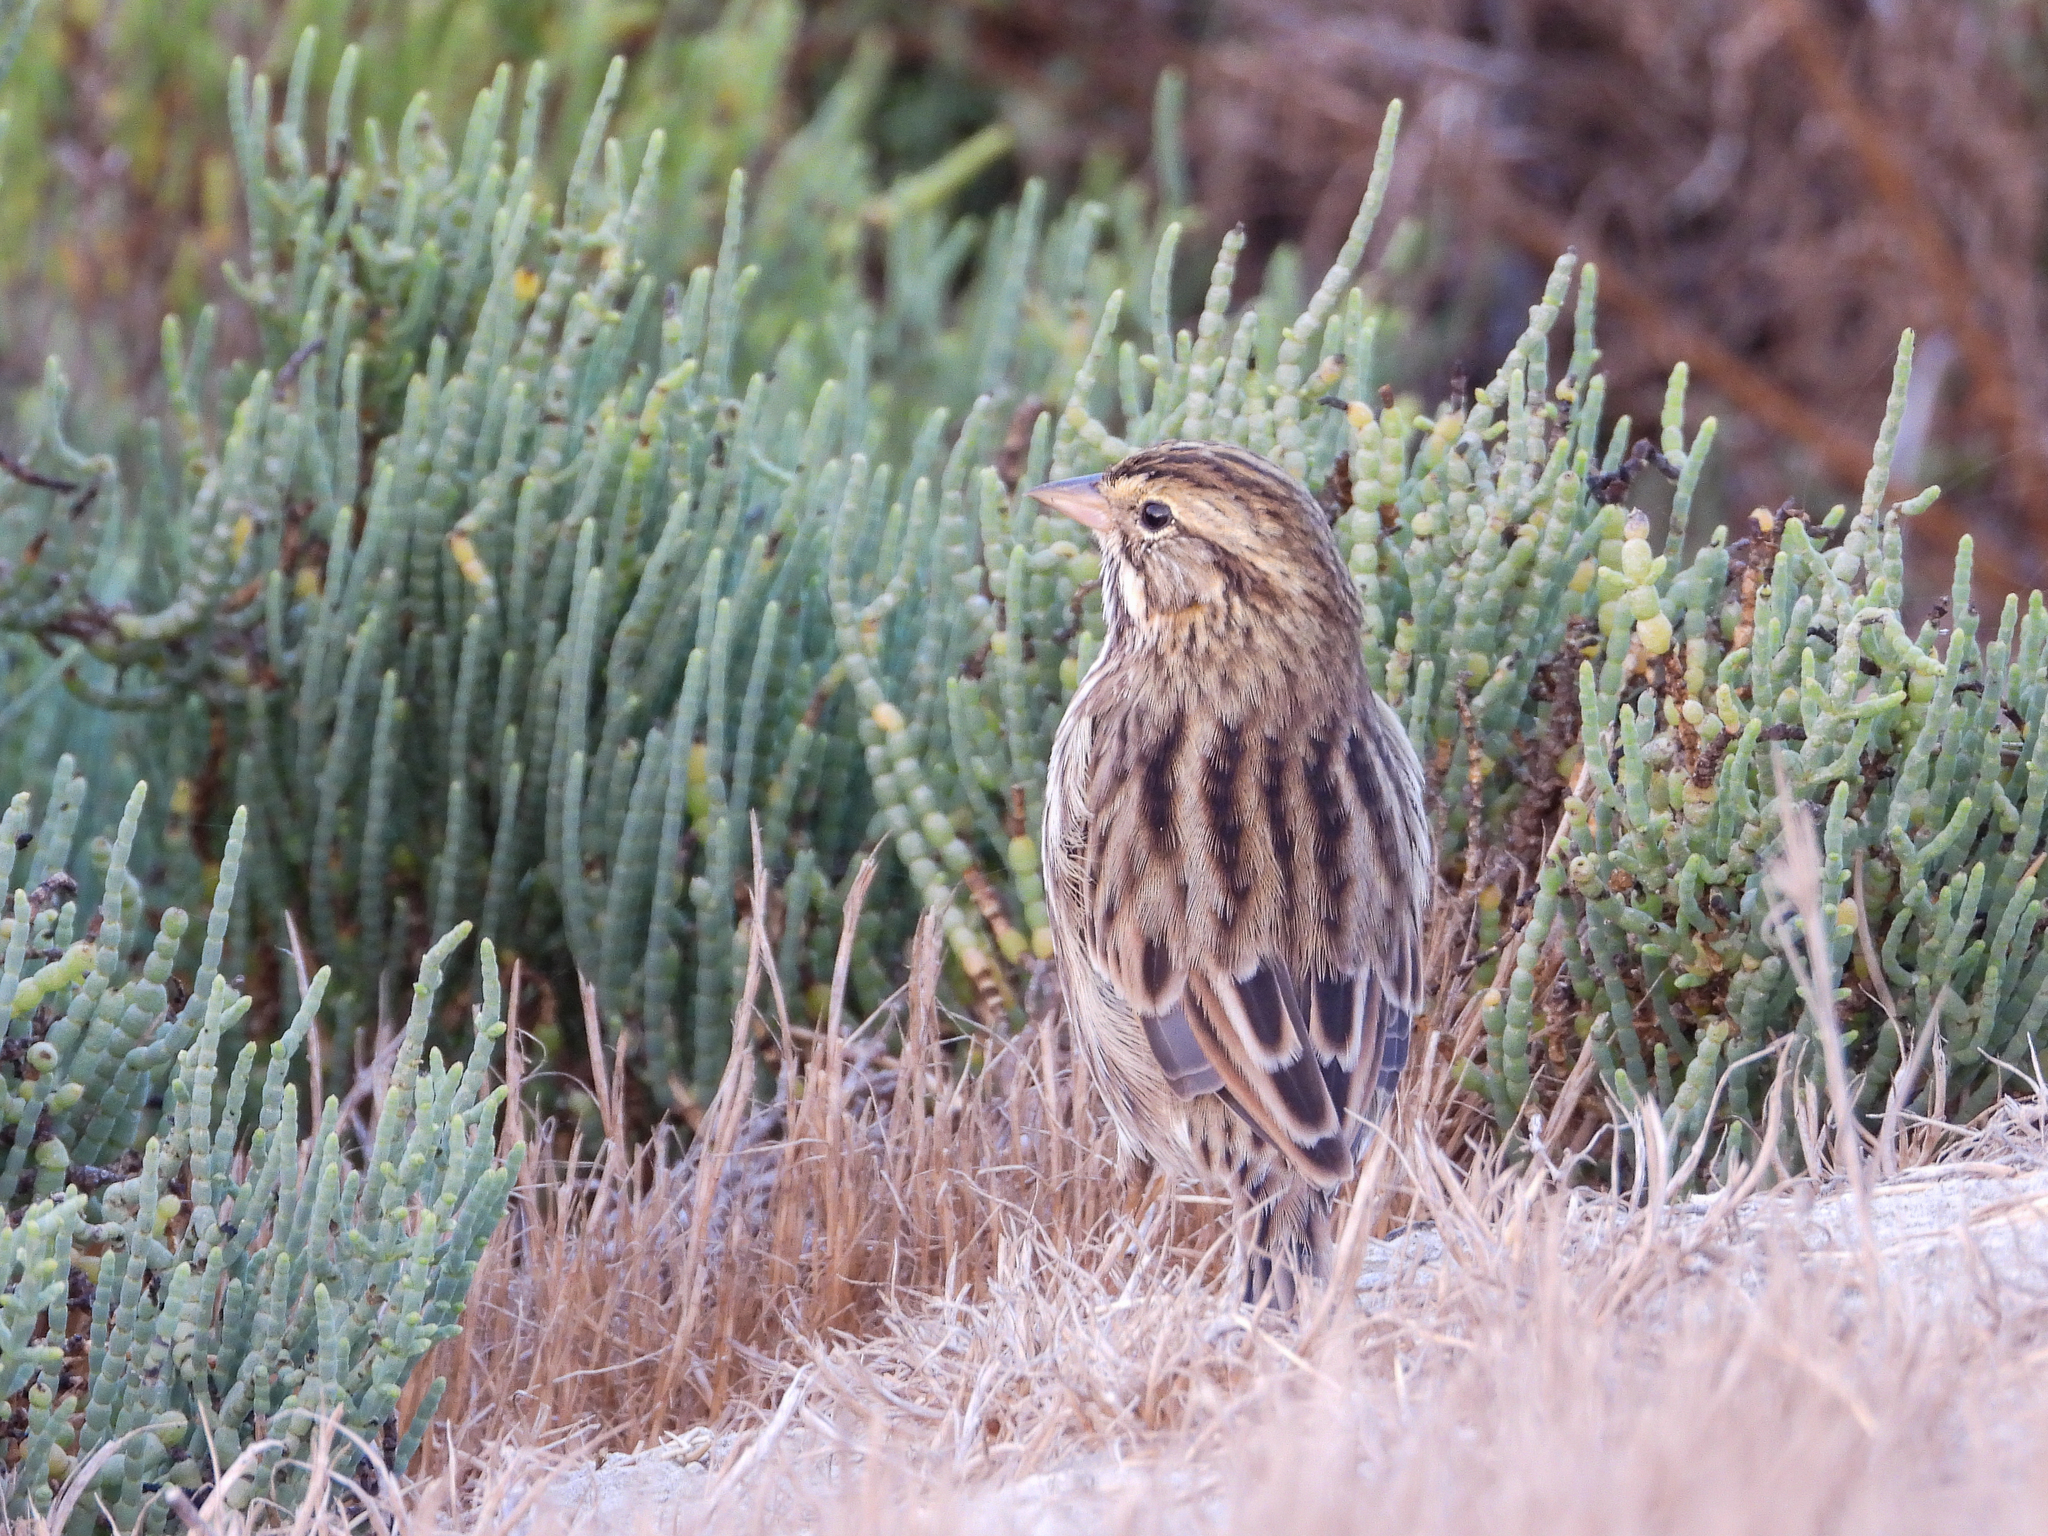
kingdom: Animalia
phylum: Chordata
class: Aves
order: Passeriformes
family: Passerellidae
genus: Passerculus
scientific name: Passerculus sandwichensis
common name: Savannah sparrow
